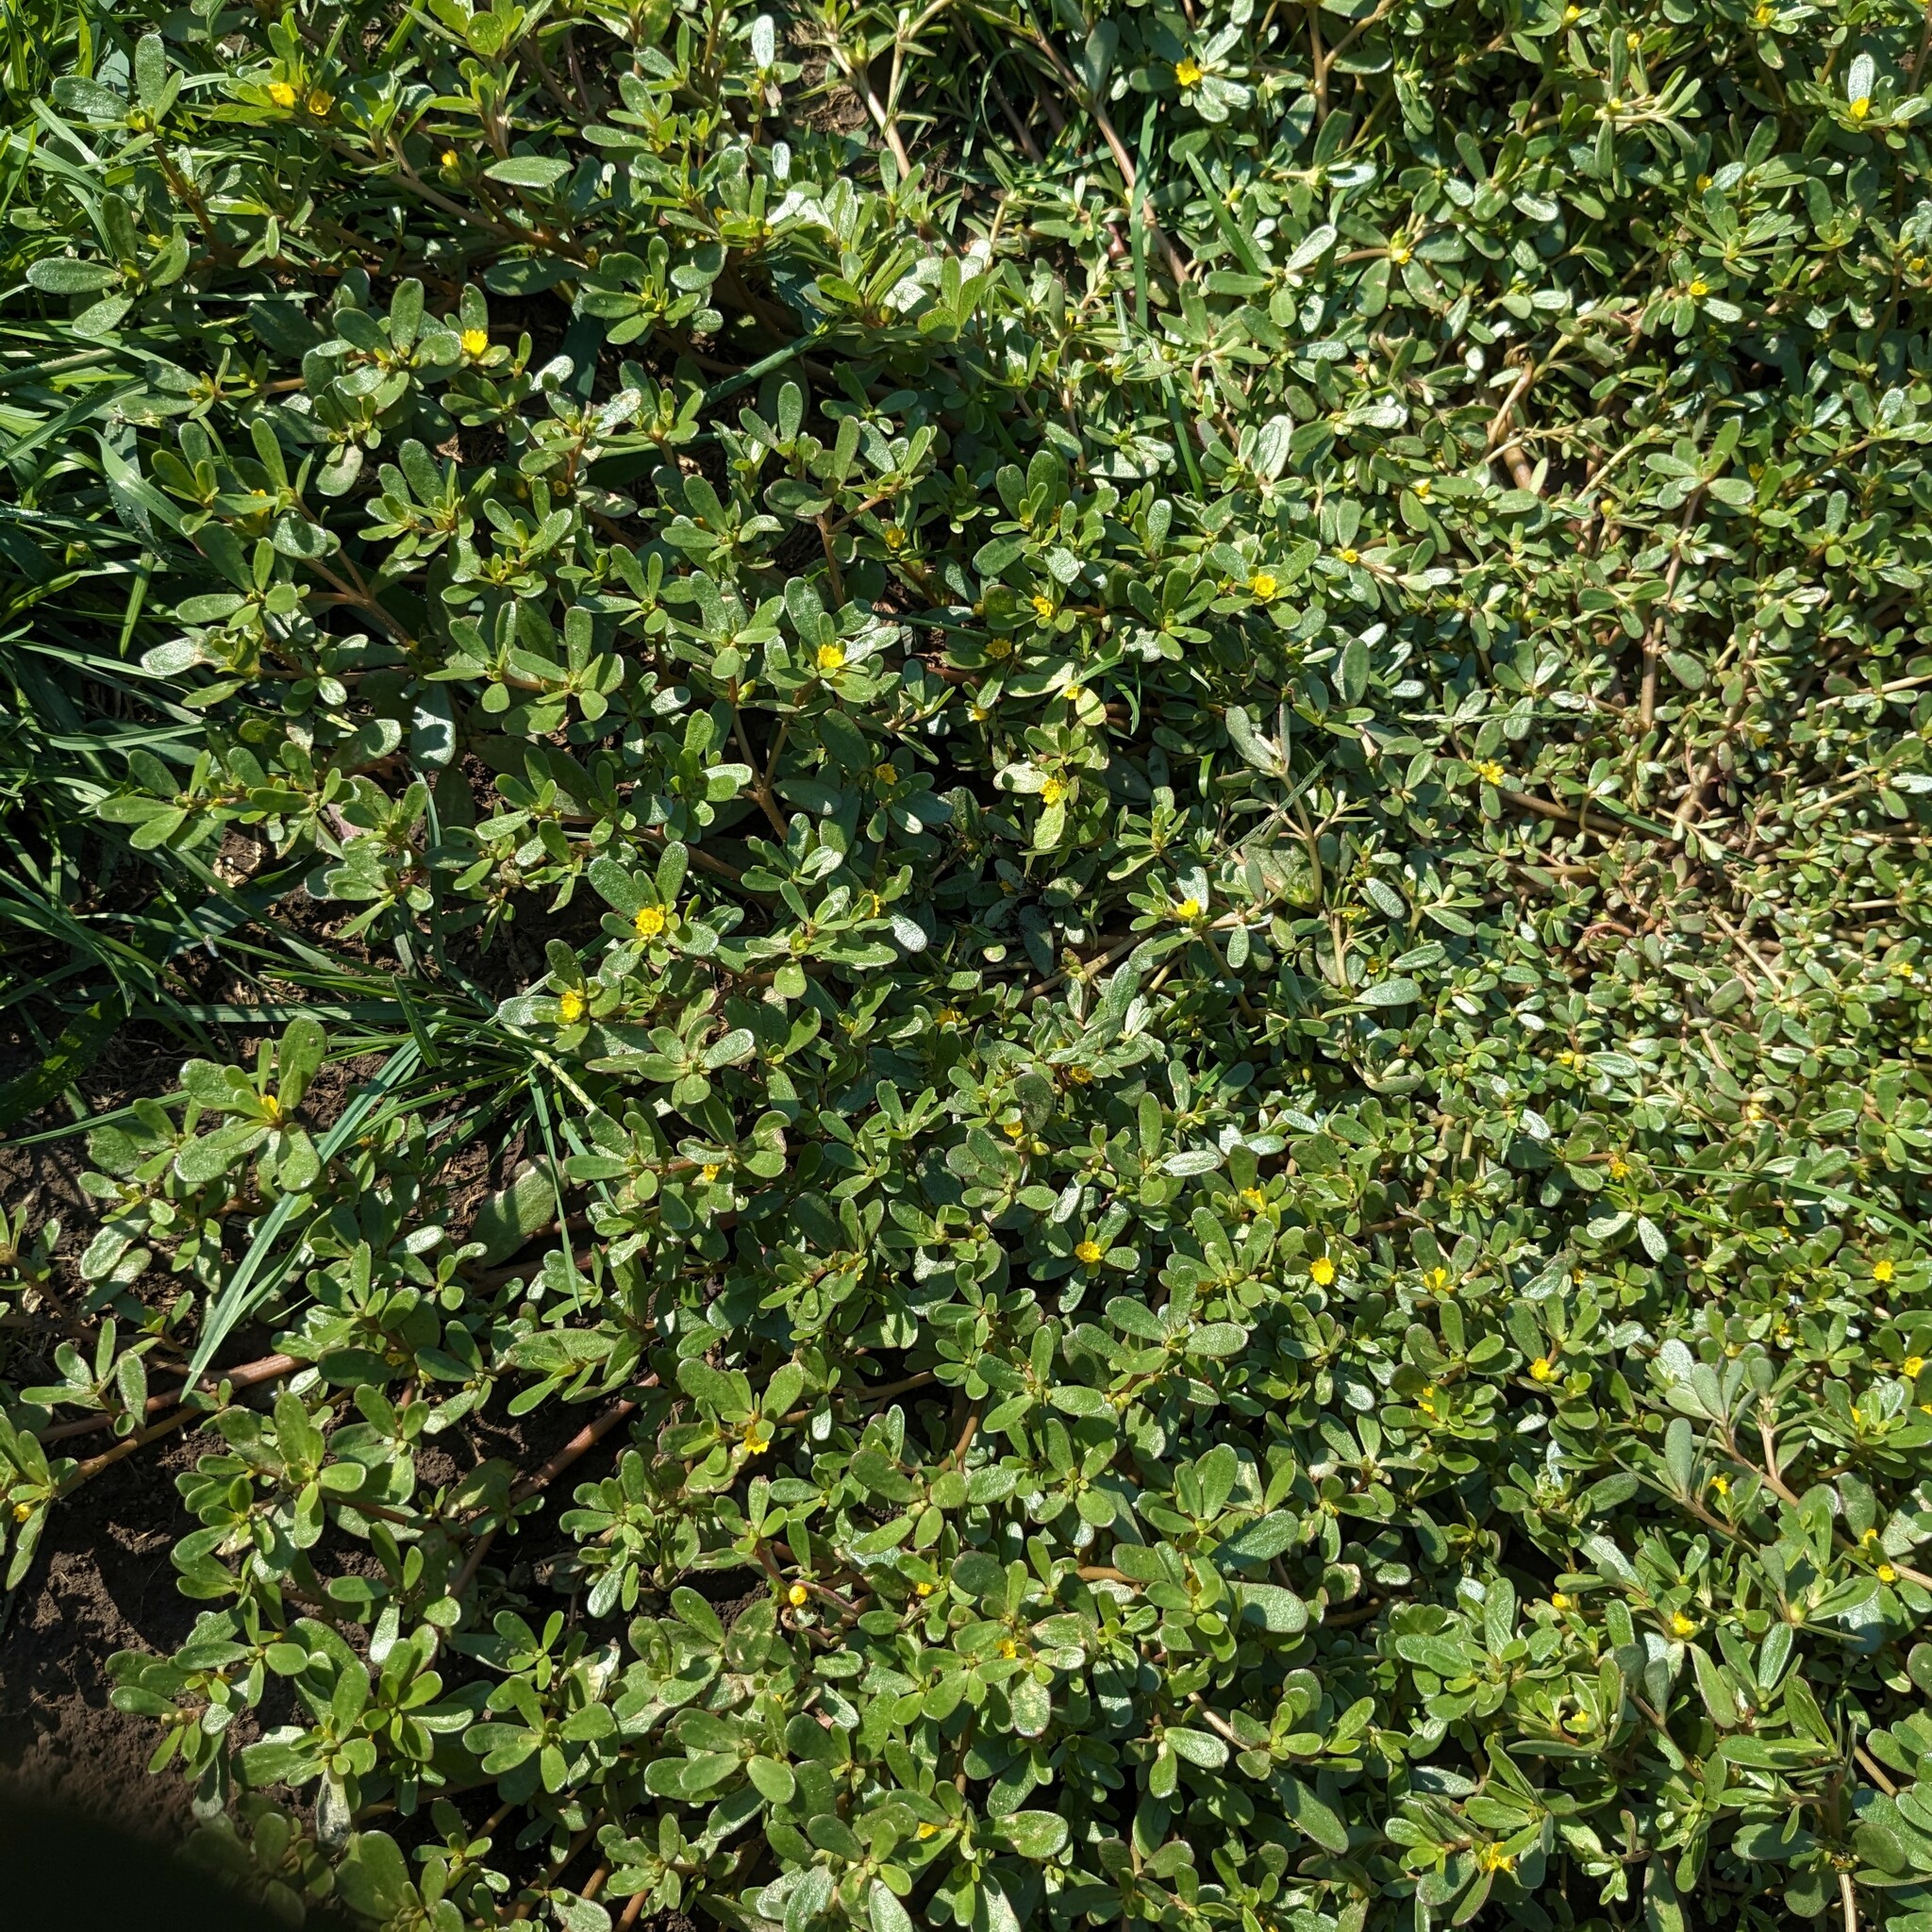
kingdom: Plantae
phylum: Tracheophyta
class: Magnoliopsida
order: Caryophyllales
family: Portulacaceae
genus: Portulaca
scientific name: Portulaca oleracea
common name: Common purslane
